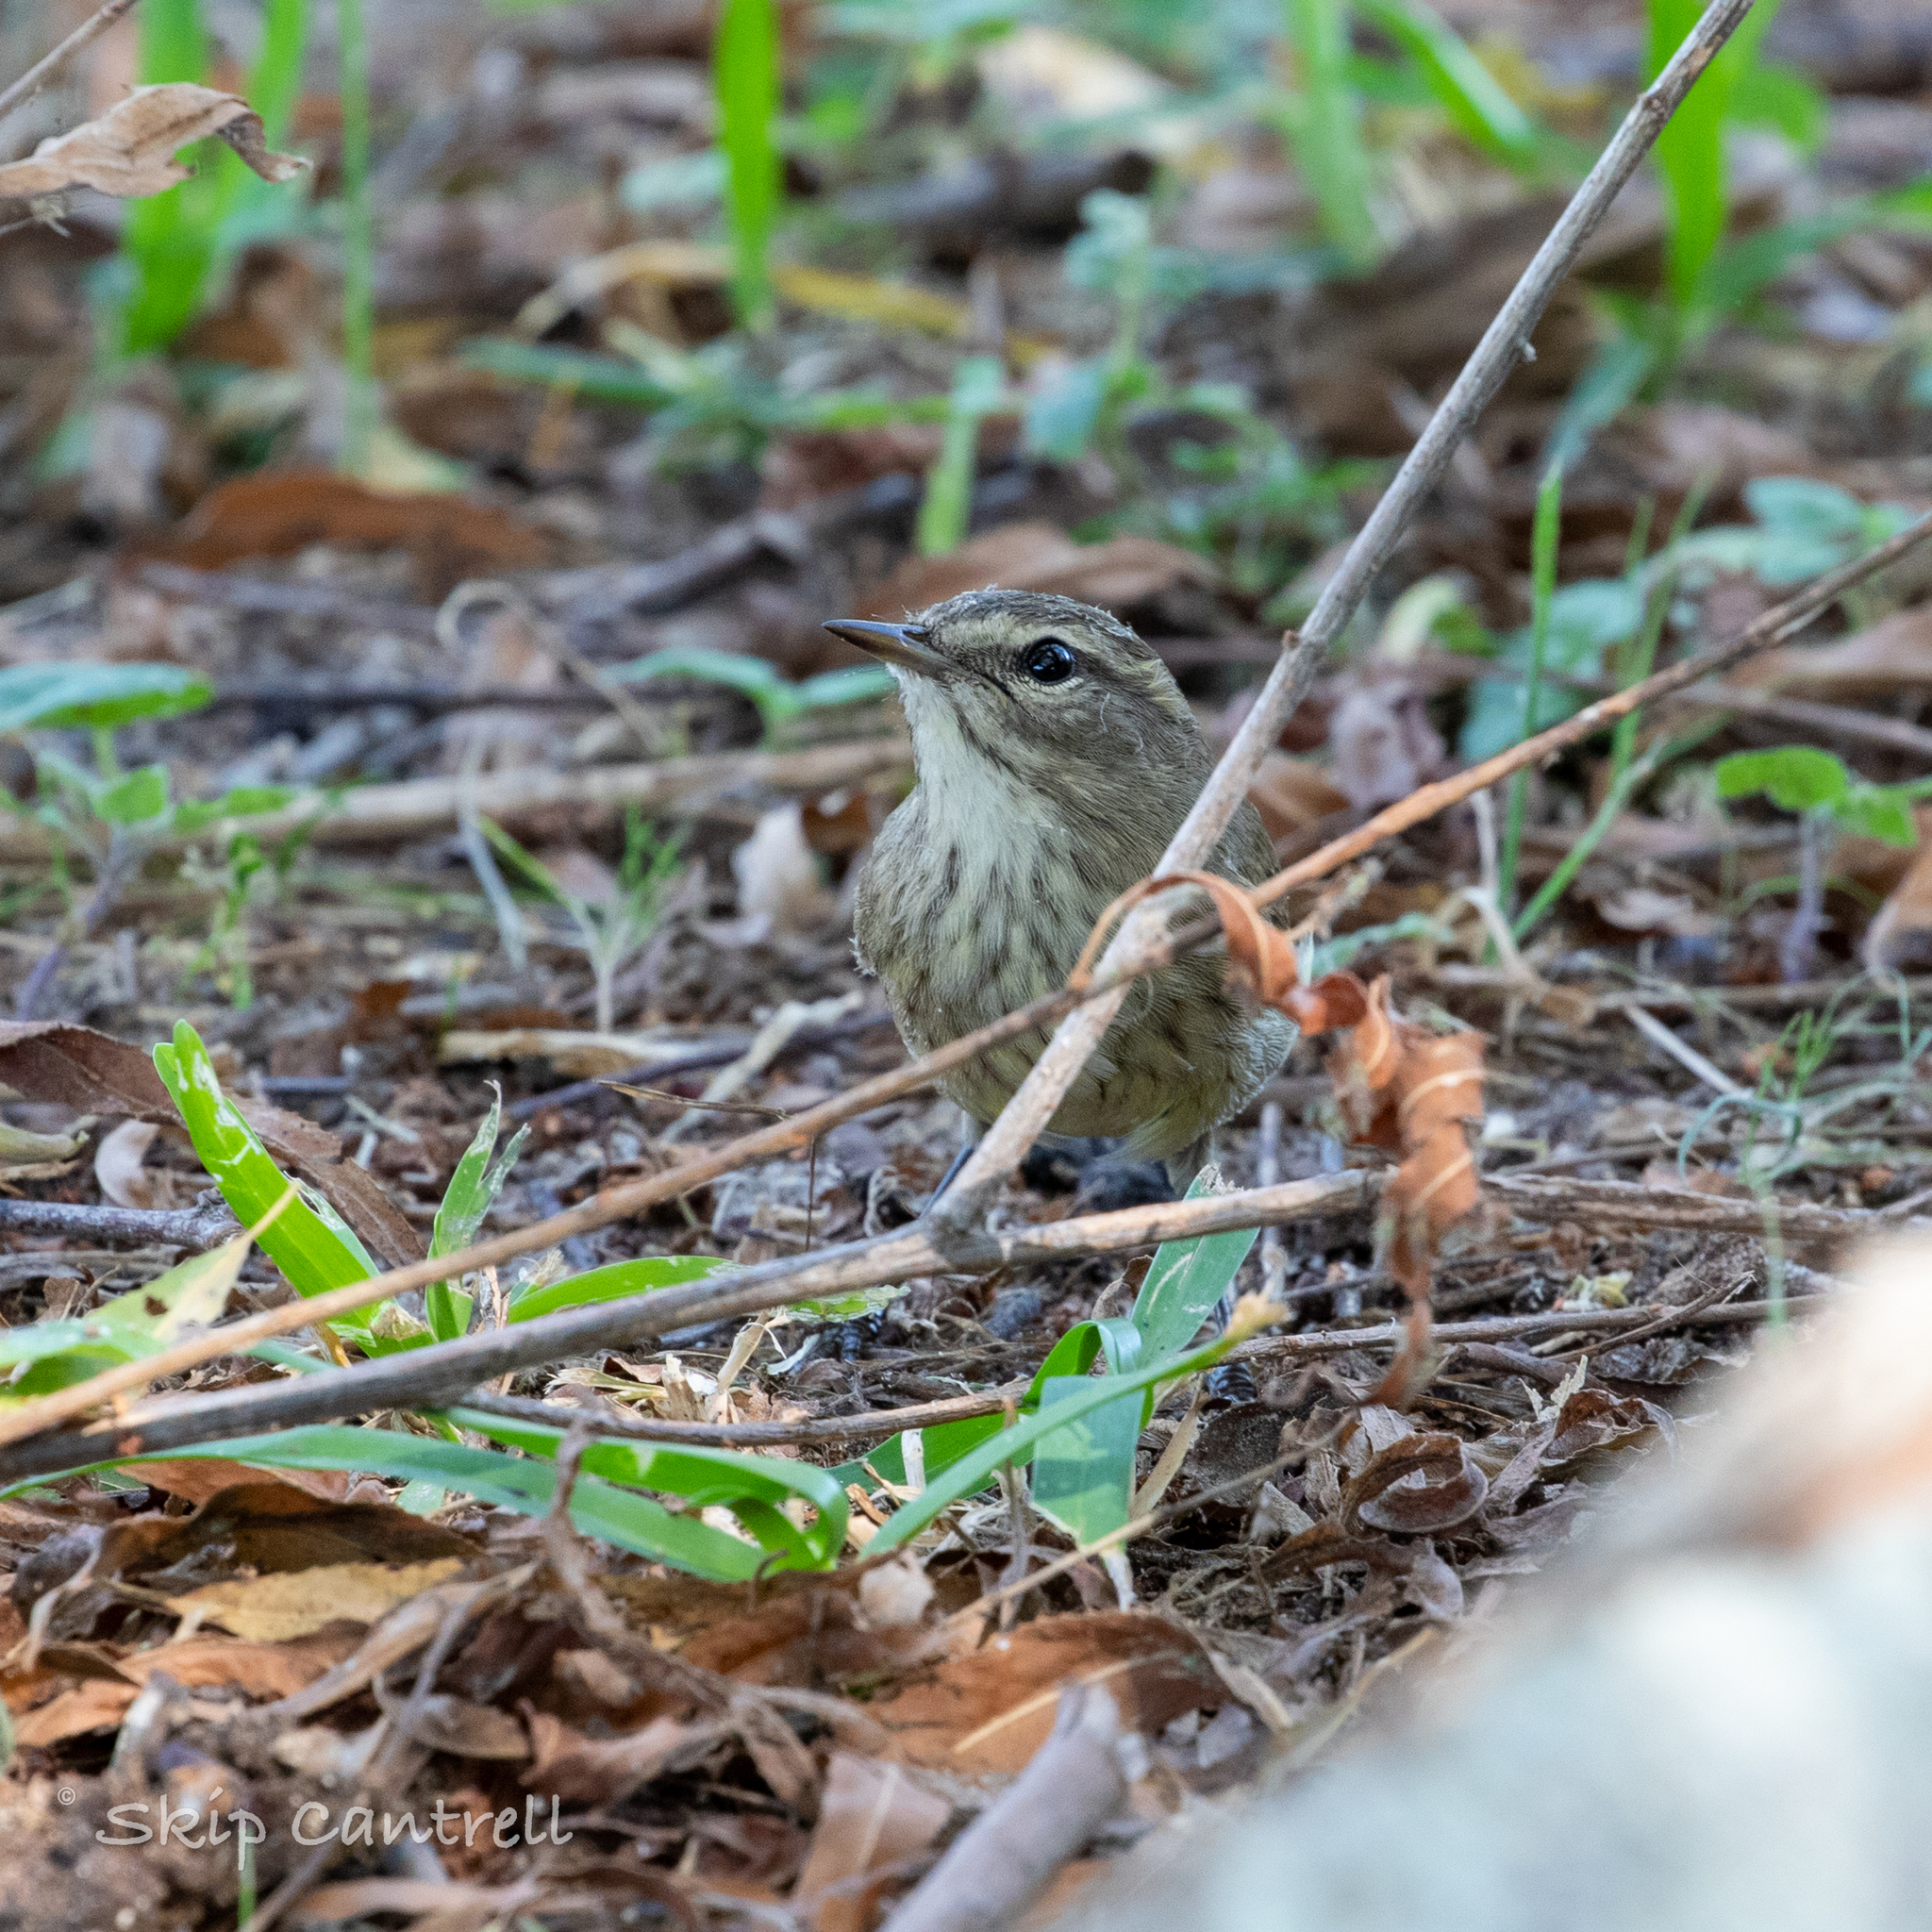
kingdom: Animalia
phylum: Chordata
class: Aves
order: Passeriformes
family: Parulidae
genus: Setophaga
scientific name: Setophaga palmarum
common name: Palm warbler
